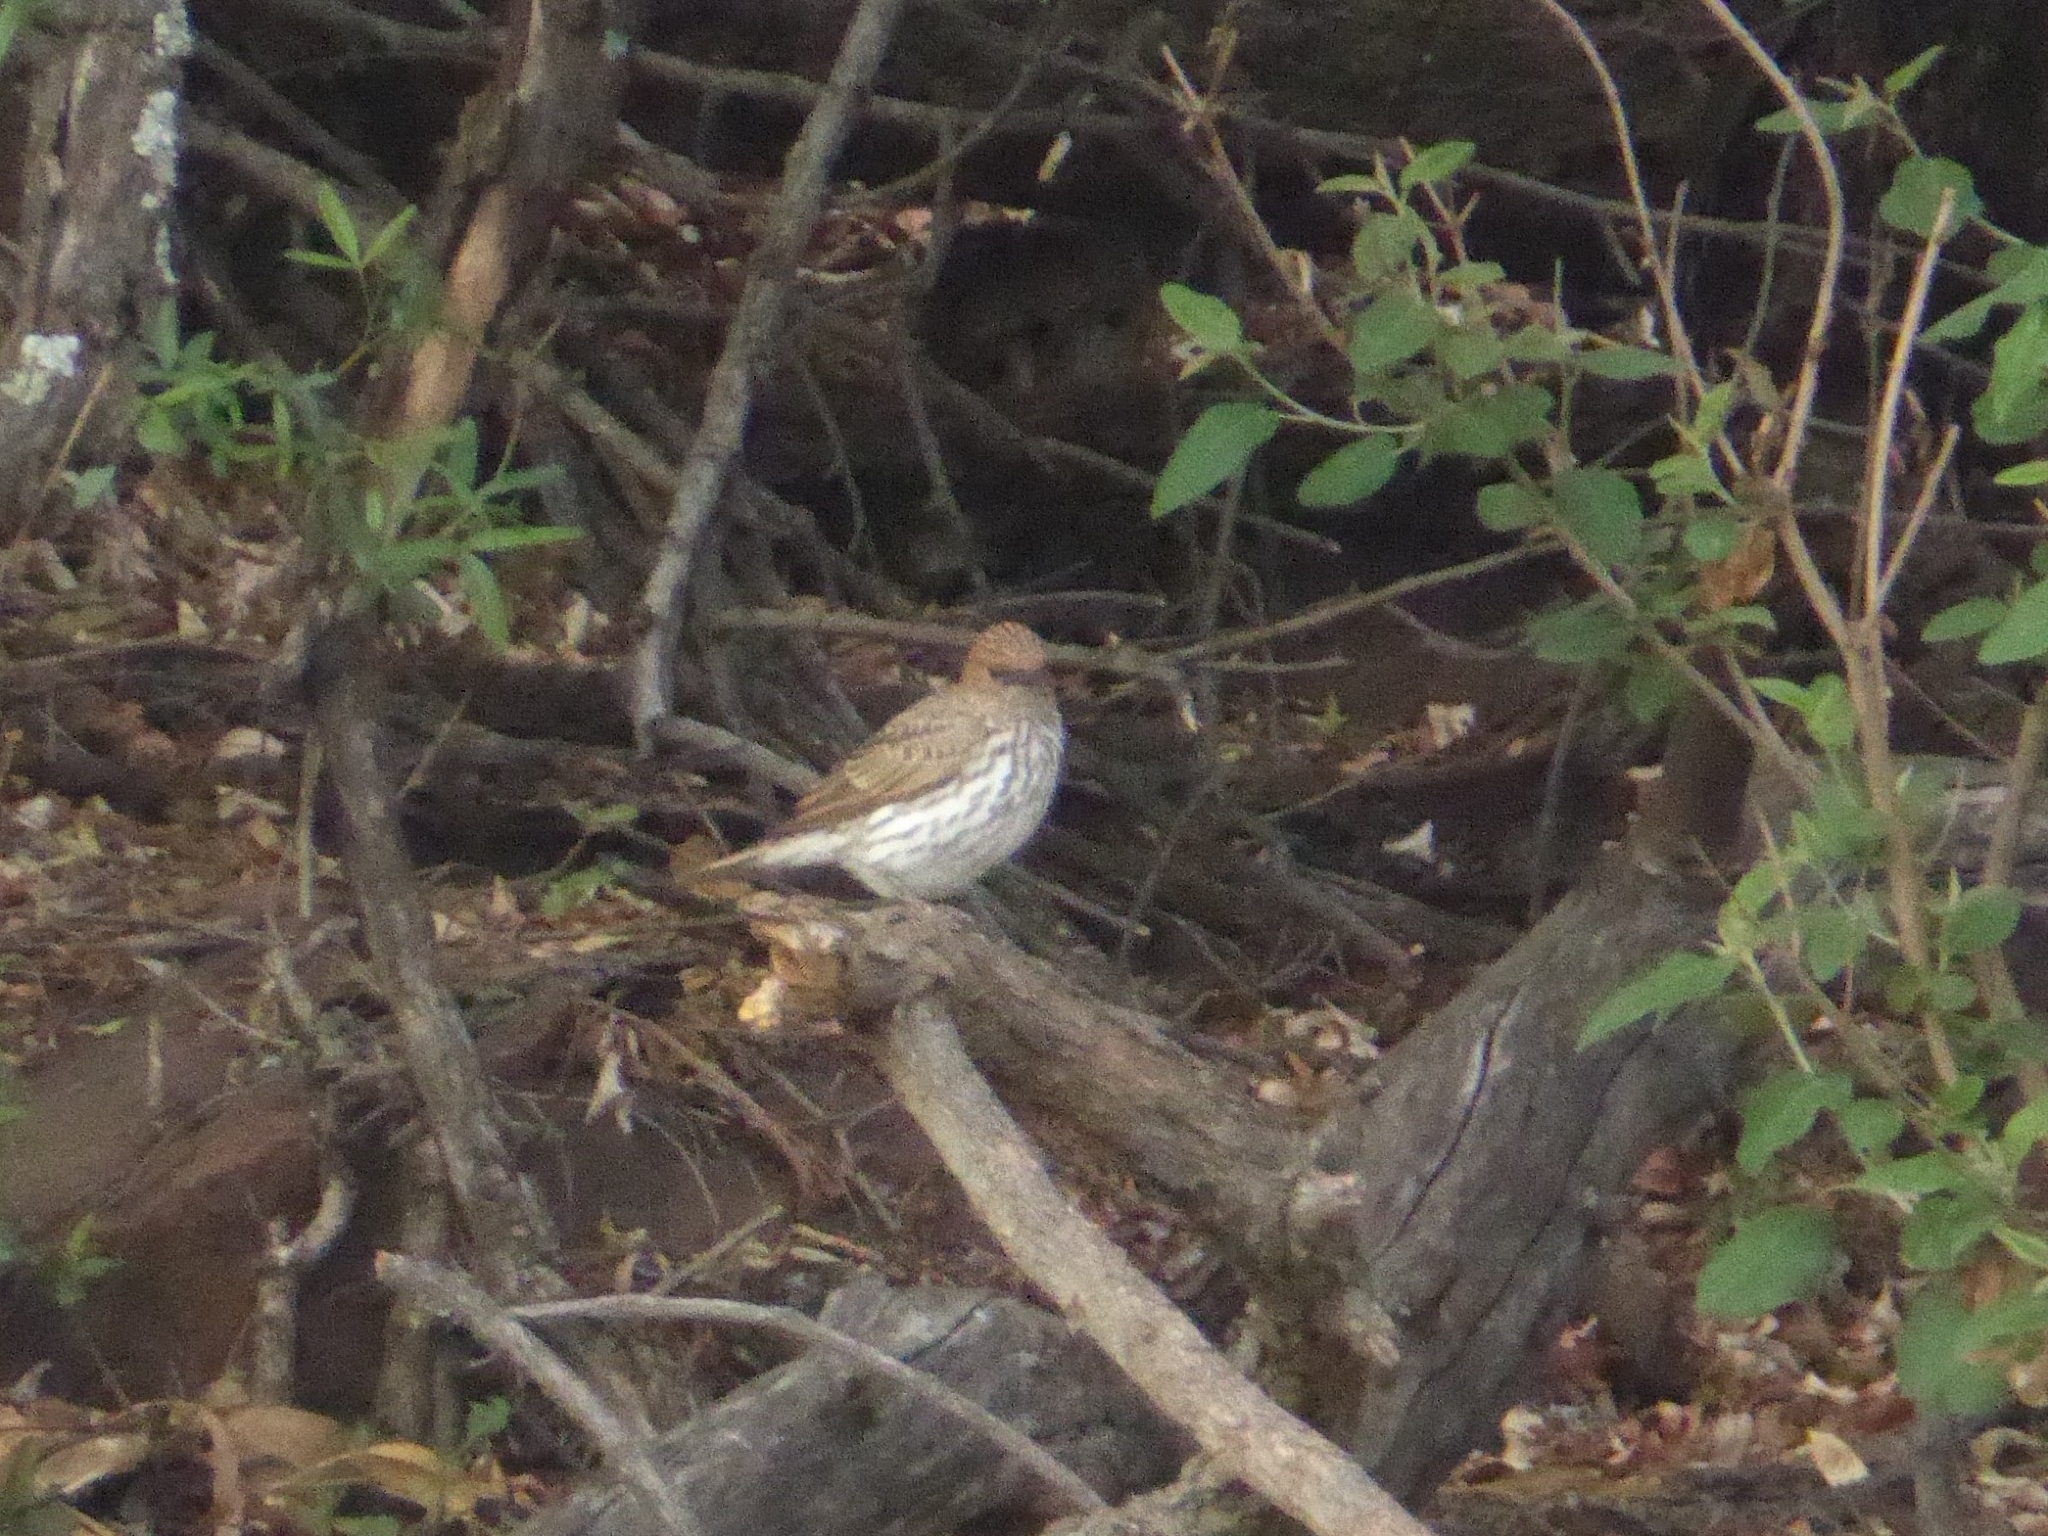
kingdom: Animalia
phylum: Chordata
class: Aves
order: Passeriformes
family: Sturnidae
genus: Cinnyricinclus
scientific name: Cinnyricinclus leucogaster
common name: Violet-backed starling
